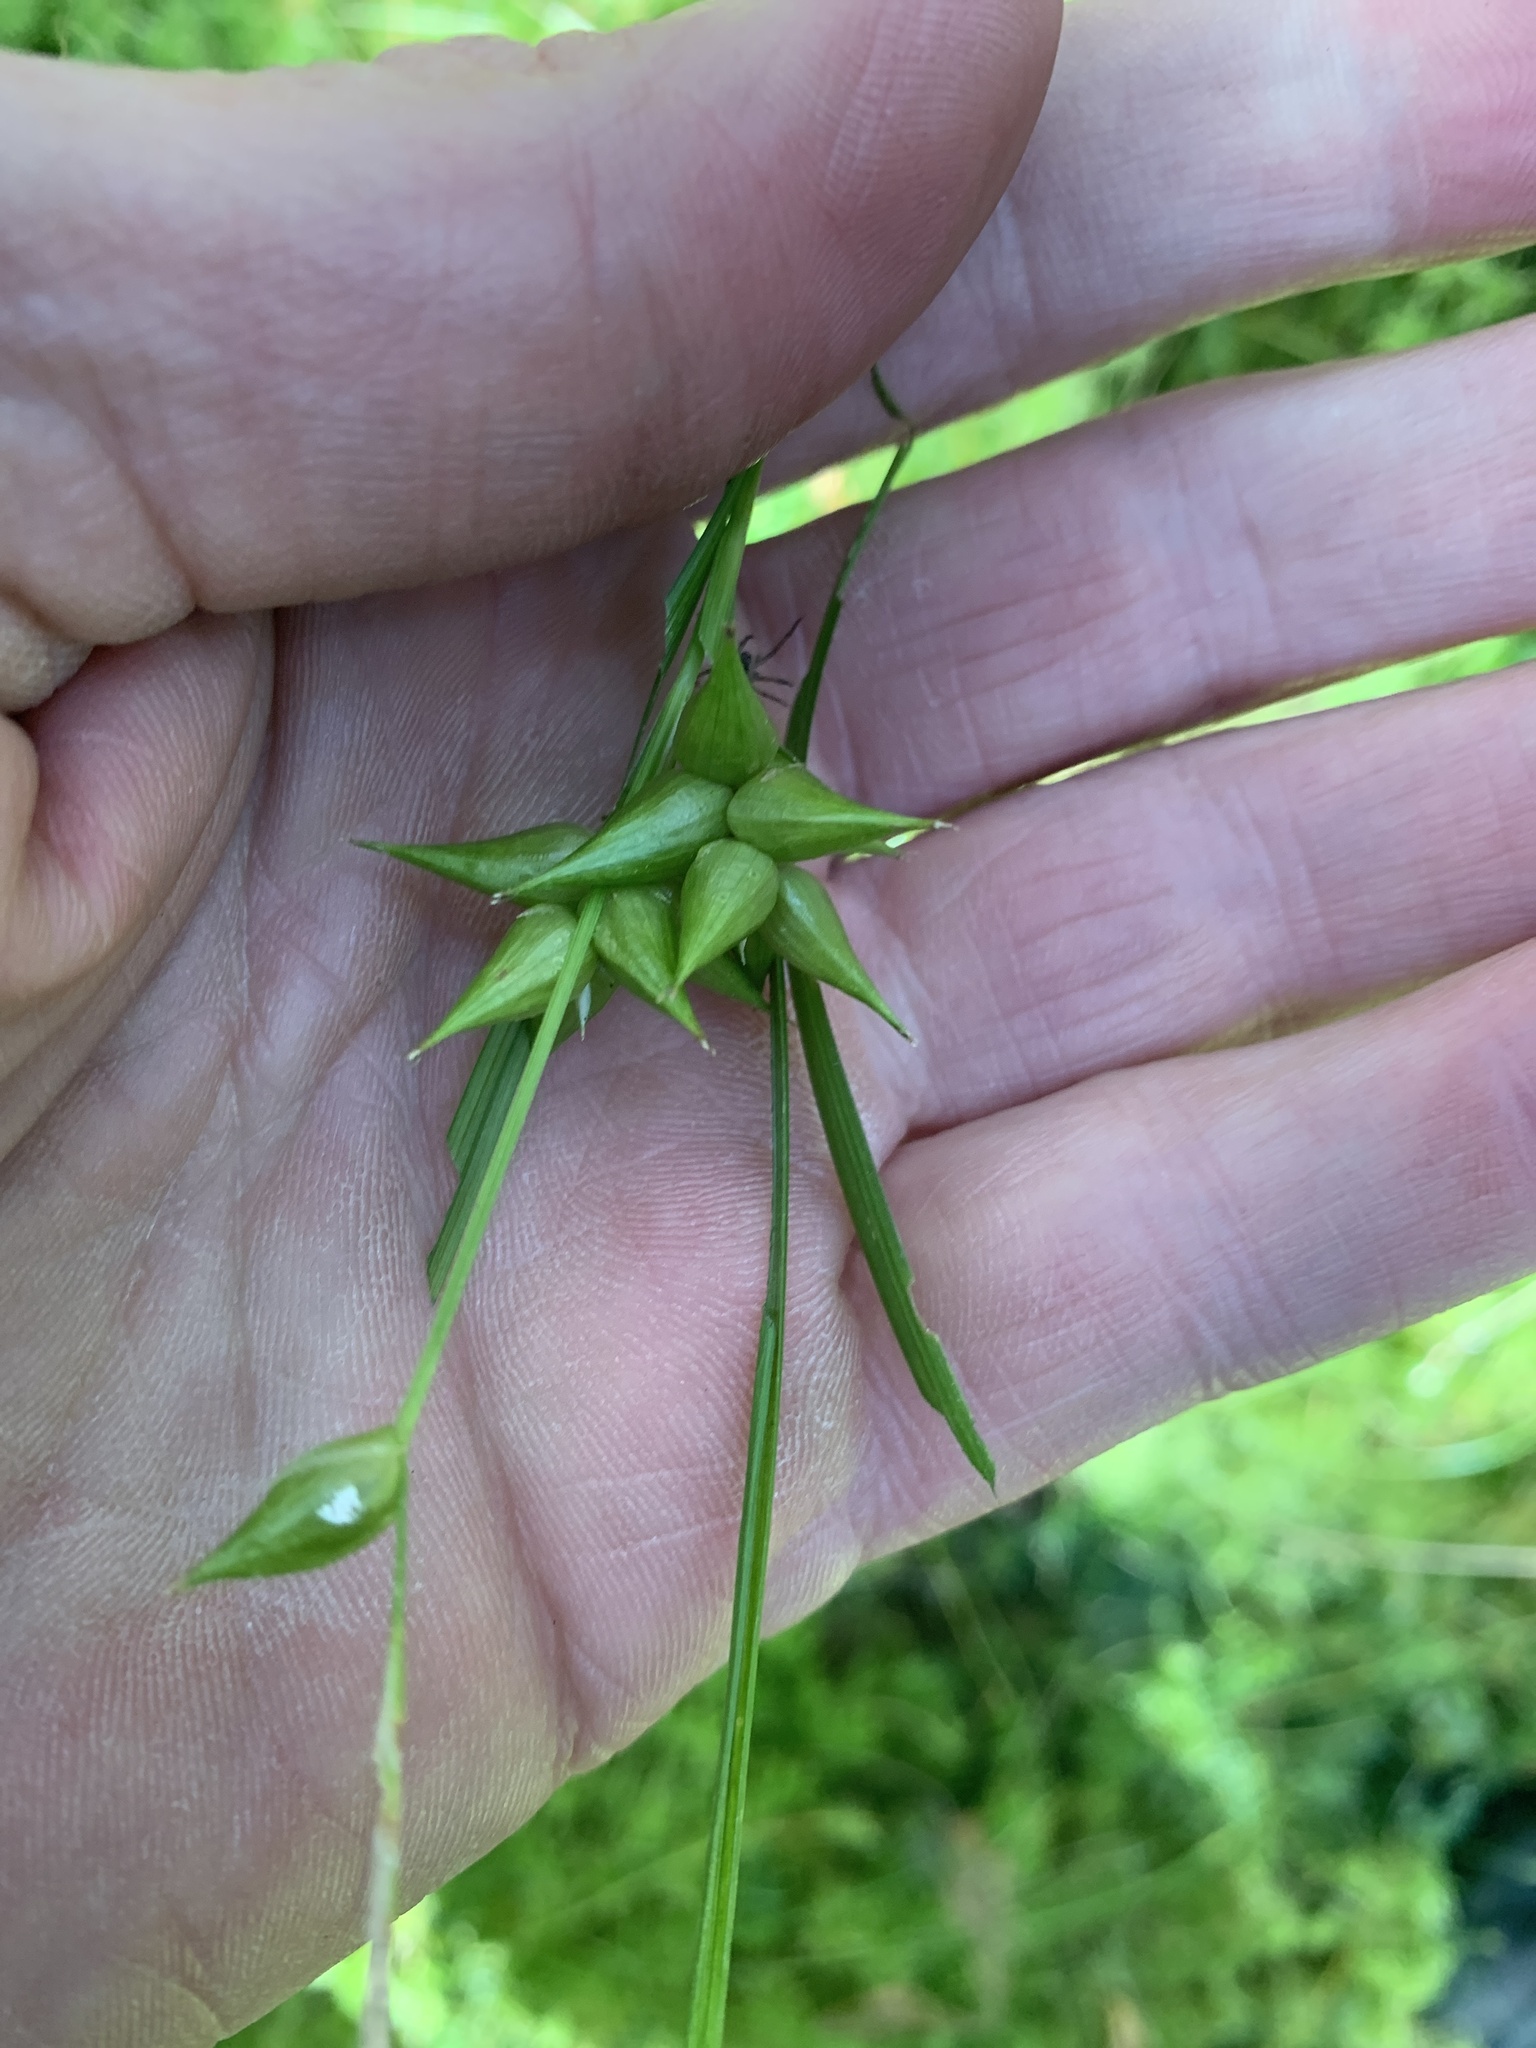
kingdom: Plantae
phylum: Tracheophyta
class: Liliopsida
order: Poales
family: Cyperaceae
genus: Carex
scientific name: Carex intumescens
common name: Greater bladder sedge
